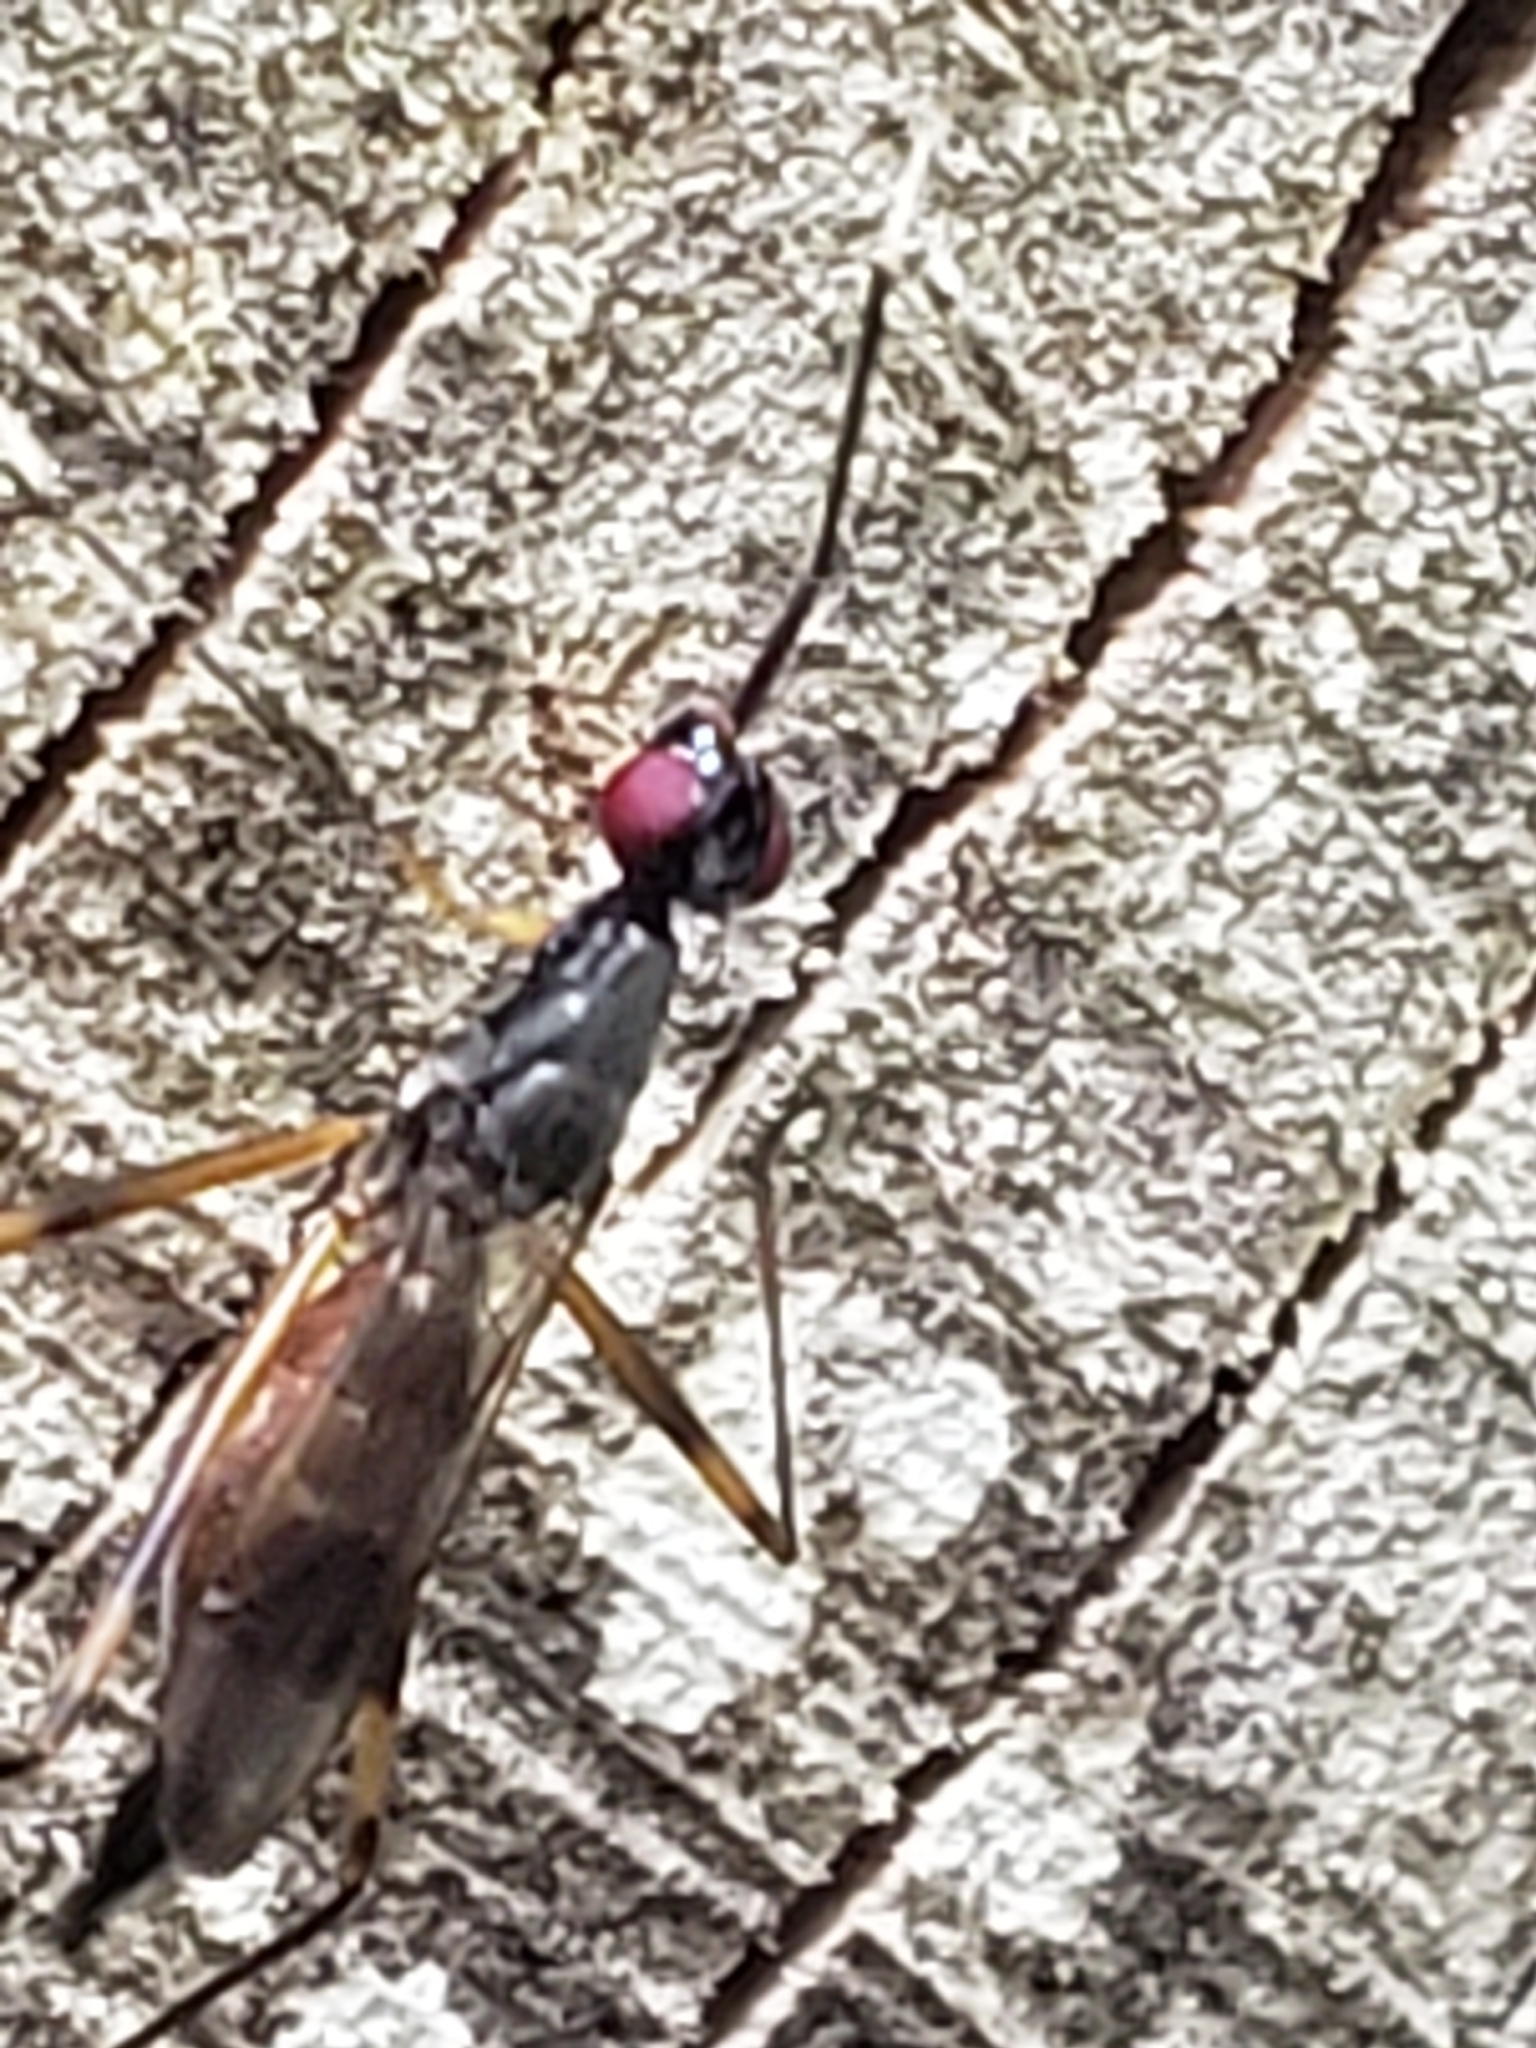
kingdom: Animalia
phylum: Arthropoda
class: Insecta
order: Diptera
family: Micropezidae
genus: Rainieria
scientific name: Rainieria antennaepes
